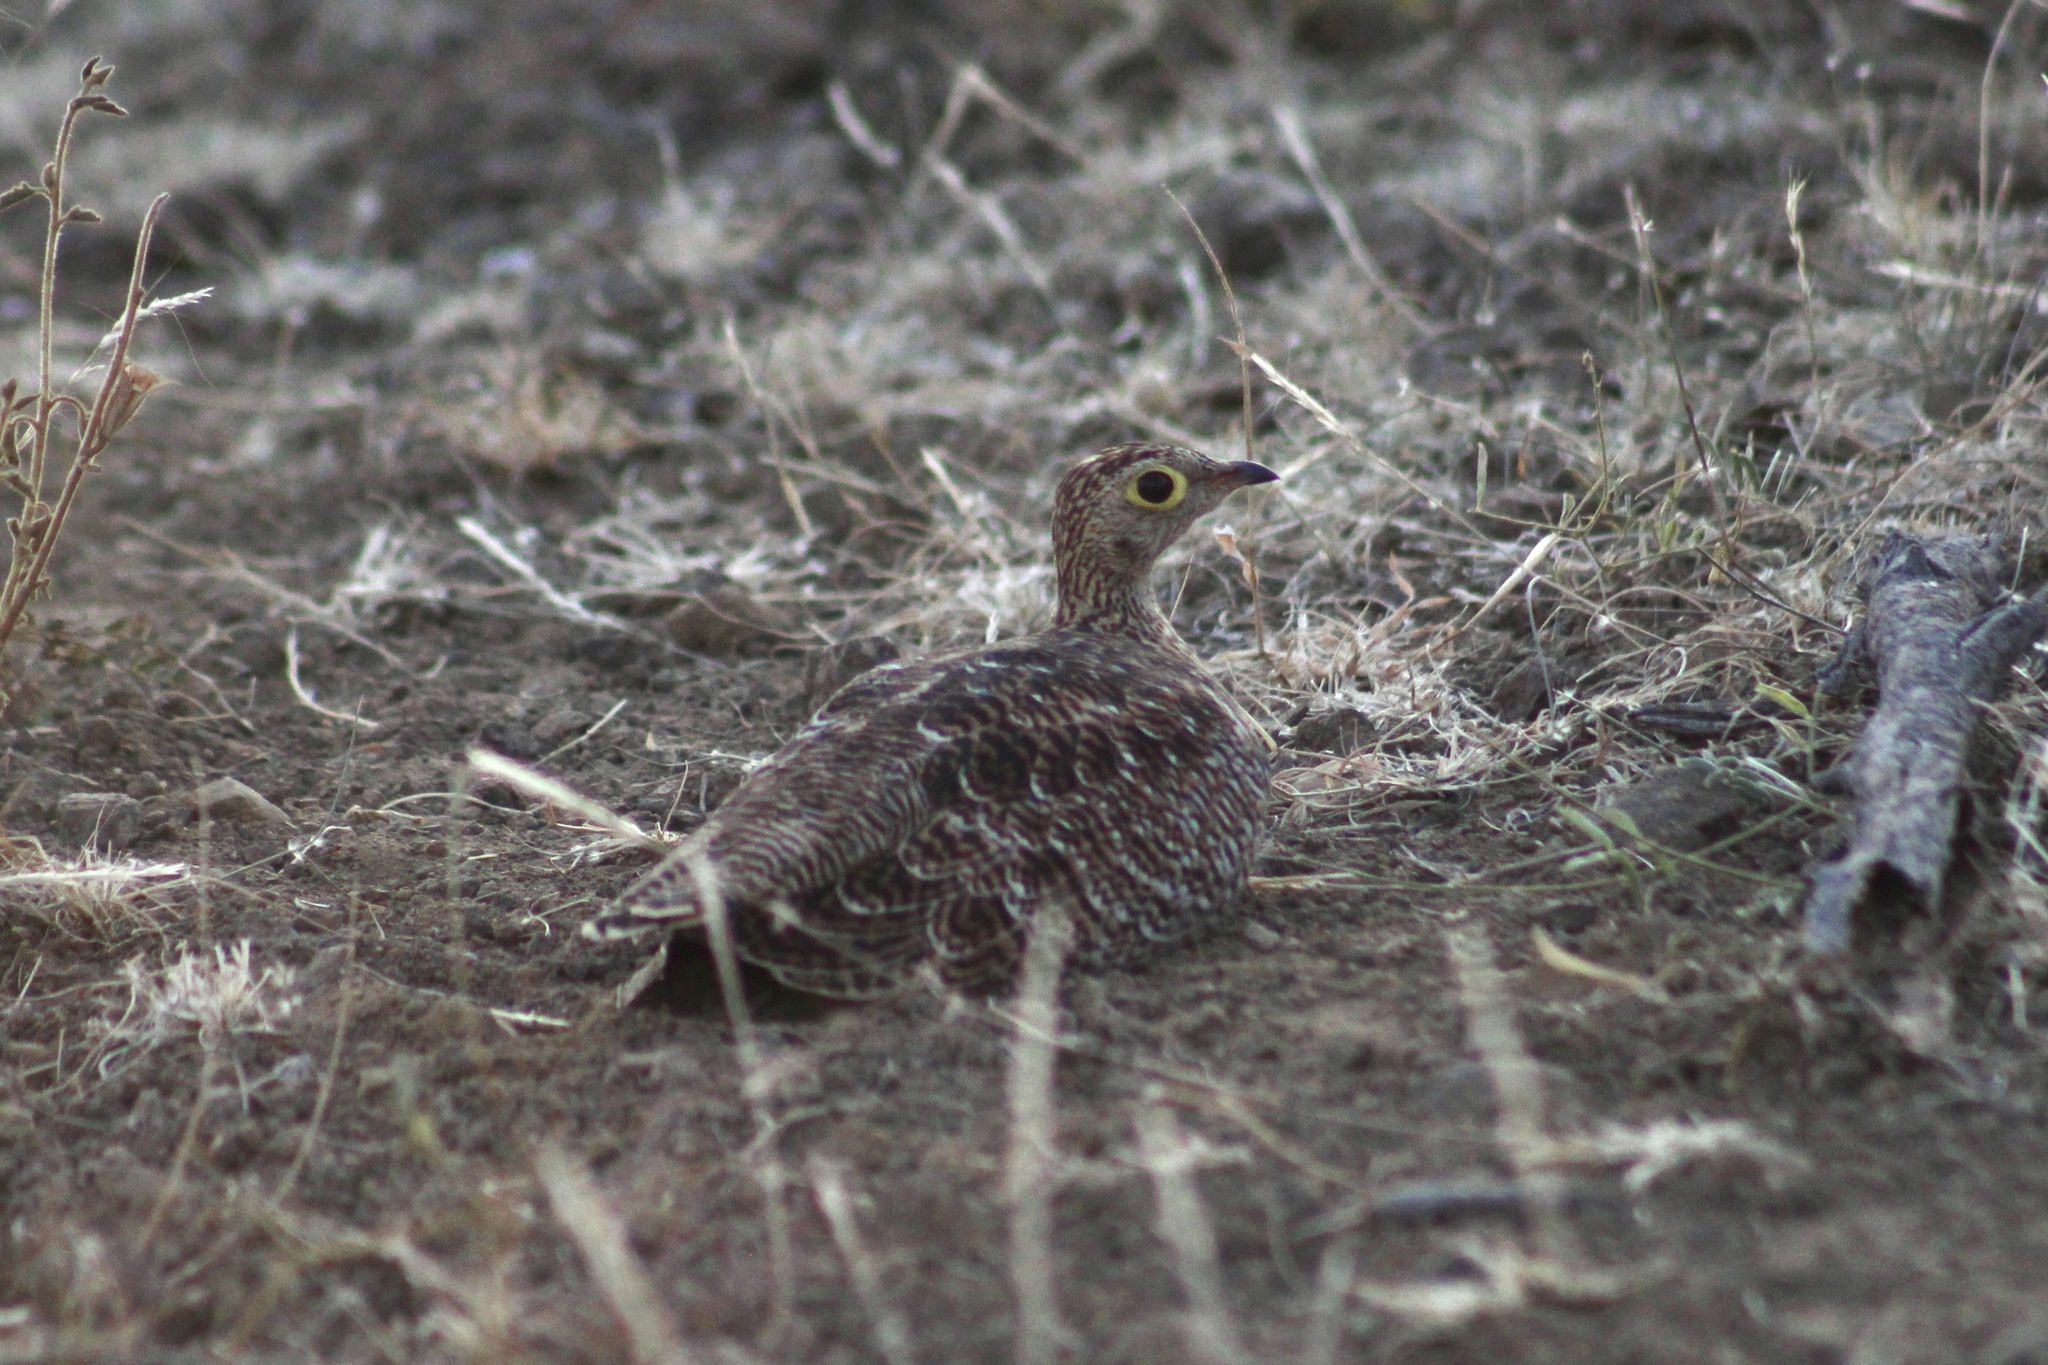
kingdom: Animalia
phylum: Chordata
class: Aves
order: Pteroclidiformes
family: Pteroclididae
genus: Pterocles
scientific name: Pterocles bicinctus
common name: Double-banded sandgrouse
